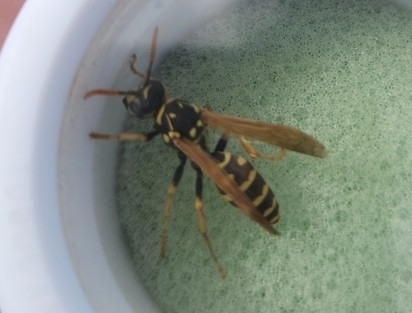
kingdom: Animalia
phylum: Arthropoda
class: Insecta
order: Hymenoptera
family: Eumenidae
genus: Polistes
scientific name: Polistes dominula
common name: Paper wasp
